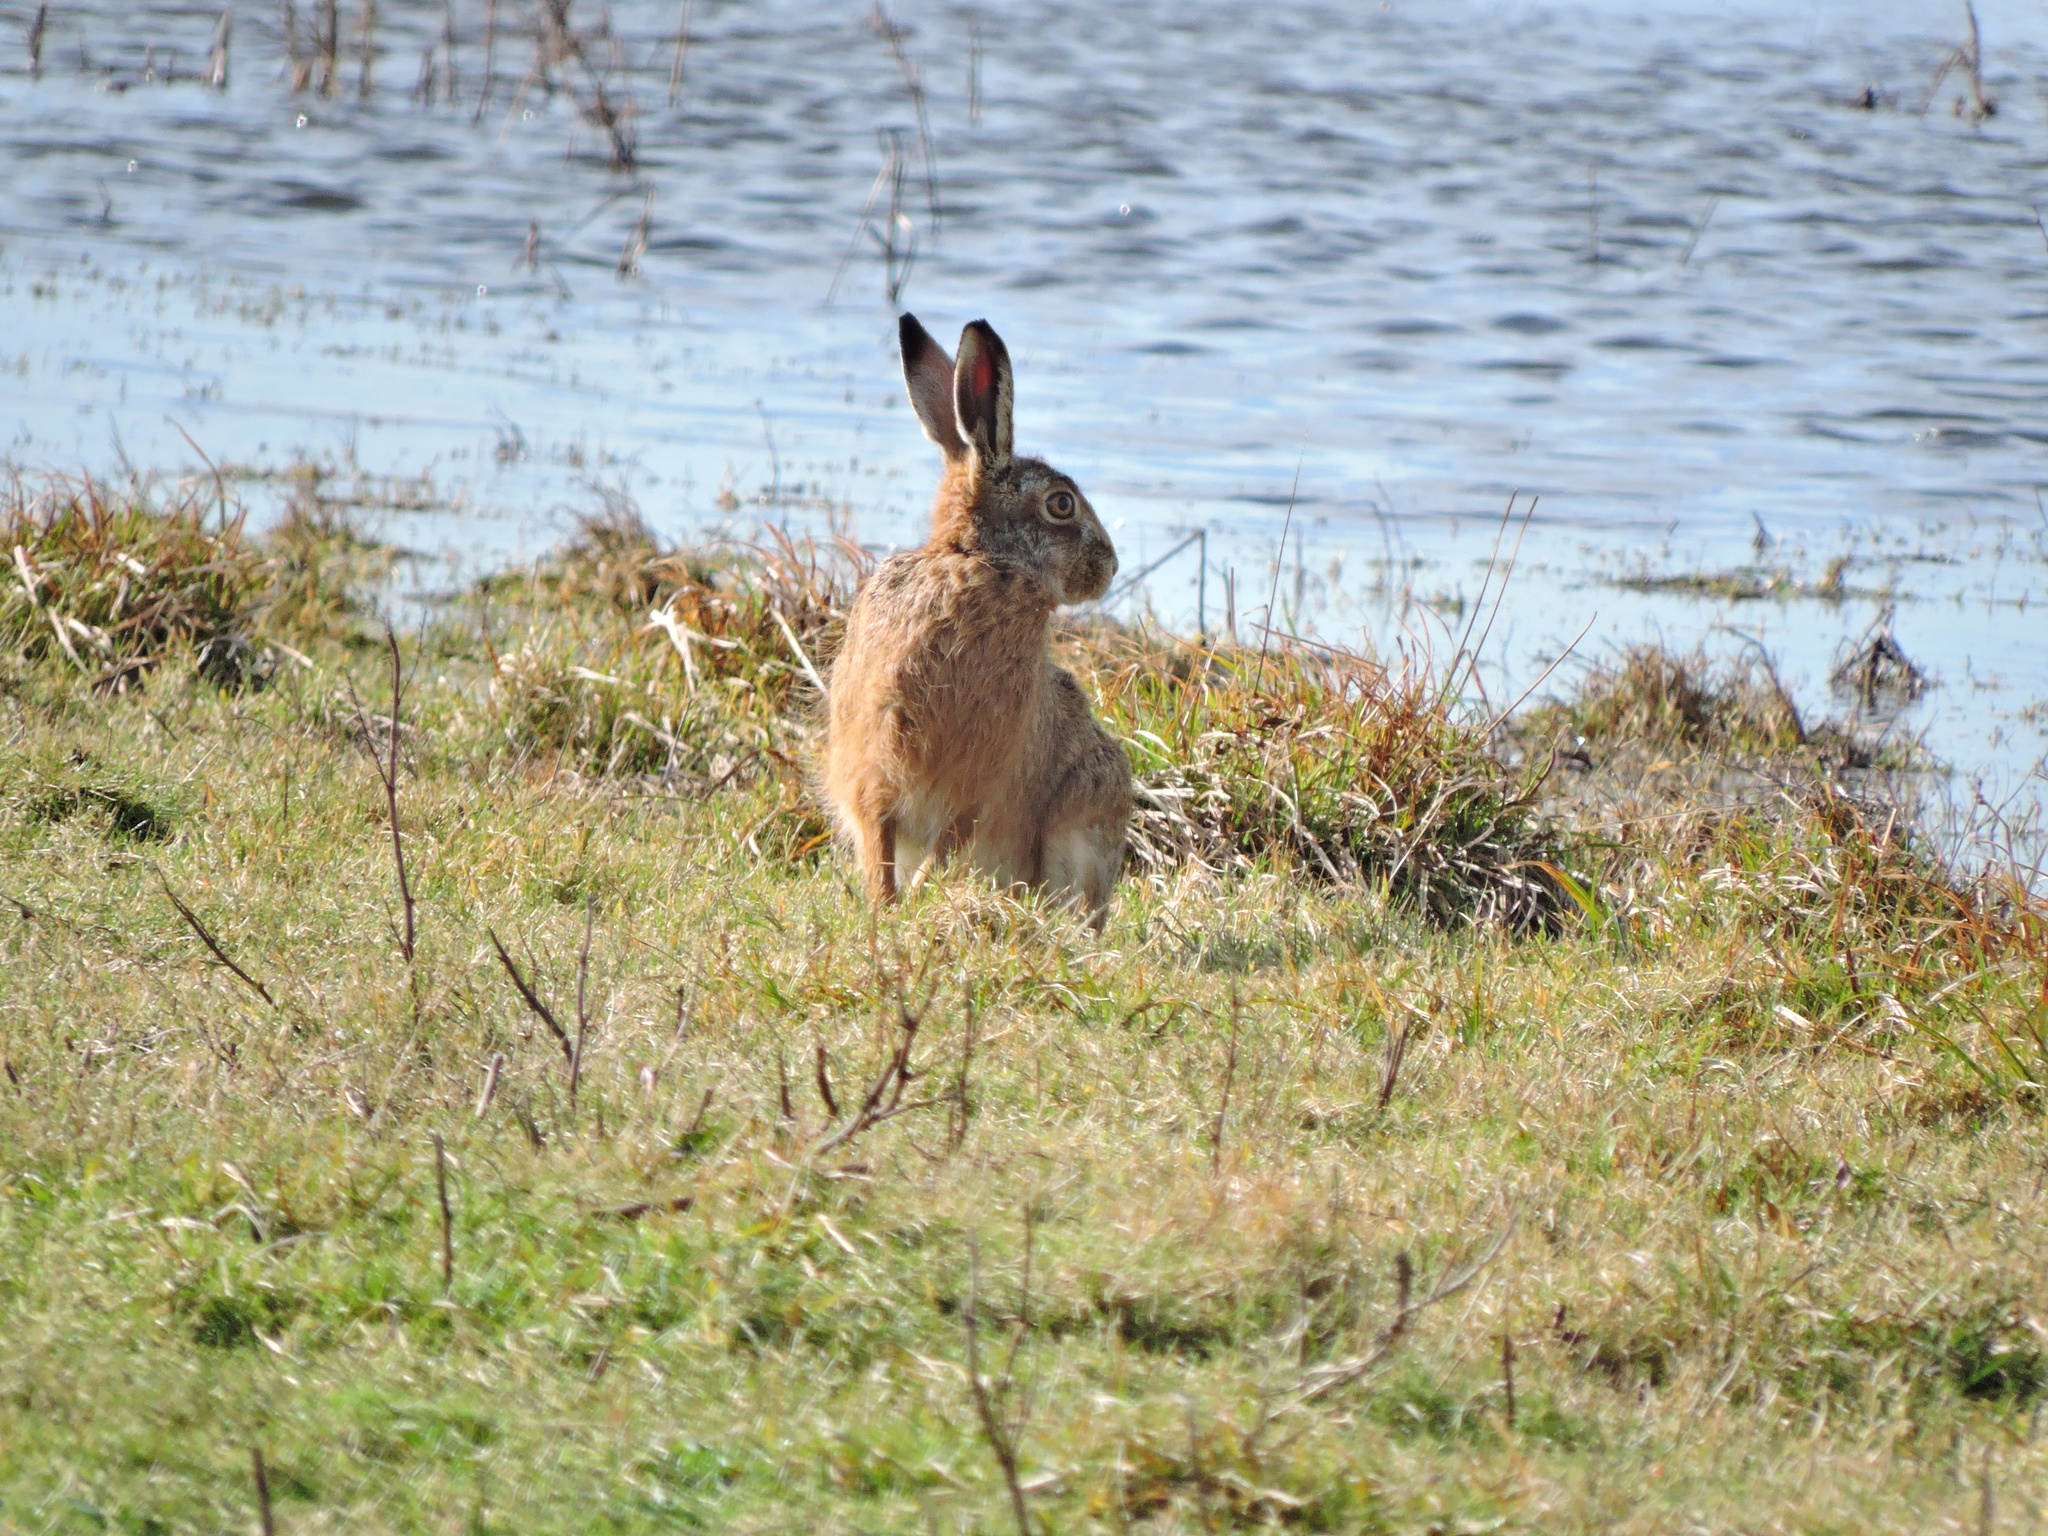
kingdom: Animalia
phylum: Chordata
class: Mammalia
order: Lagomorpha
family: Leporidae
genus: Lepus
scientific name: Lepus europaeus
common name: European hare
